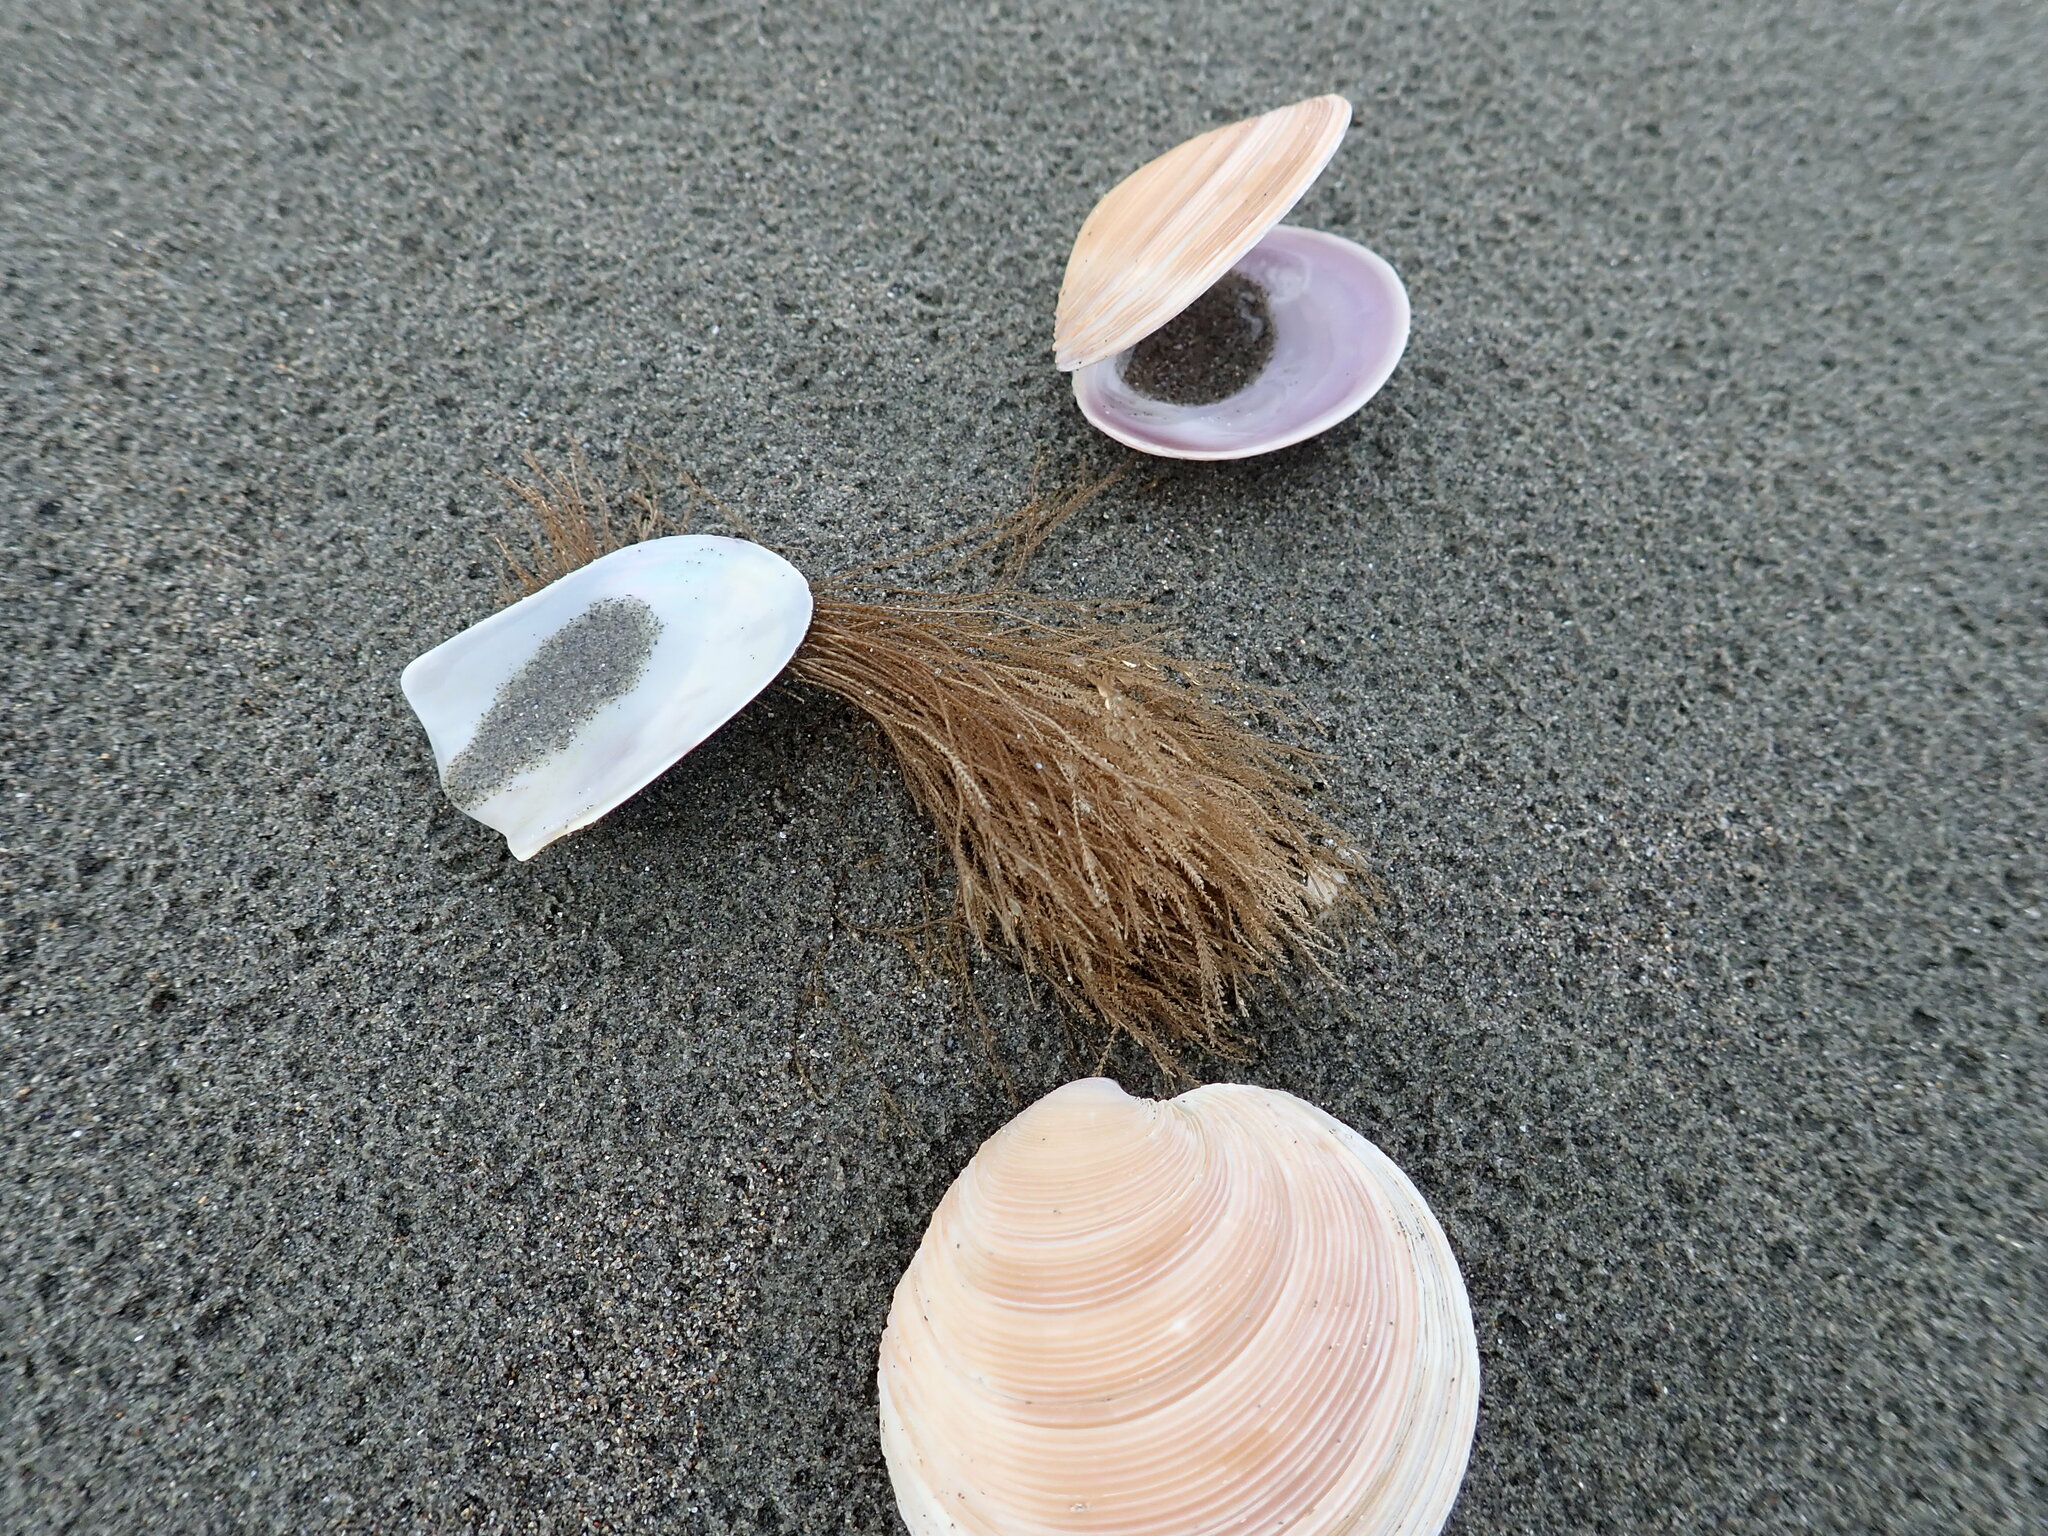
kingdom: Animalia
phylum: Cnidaria
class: Hydrozoa
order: Leptothecata
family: Sertulariidae
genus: Amphisbetia
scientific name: Amphisbetia bispinosa
